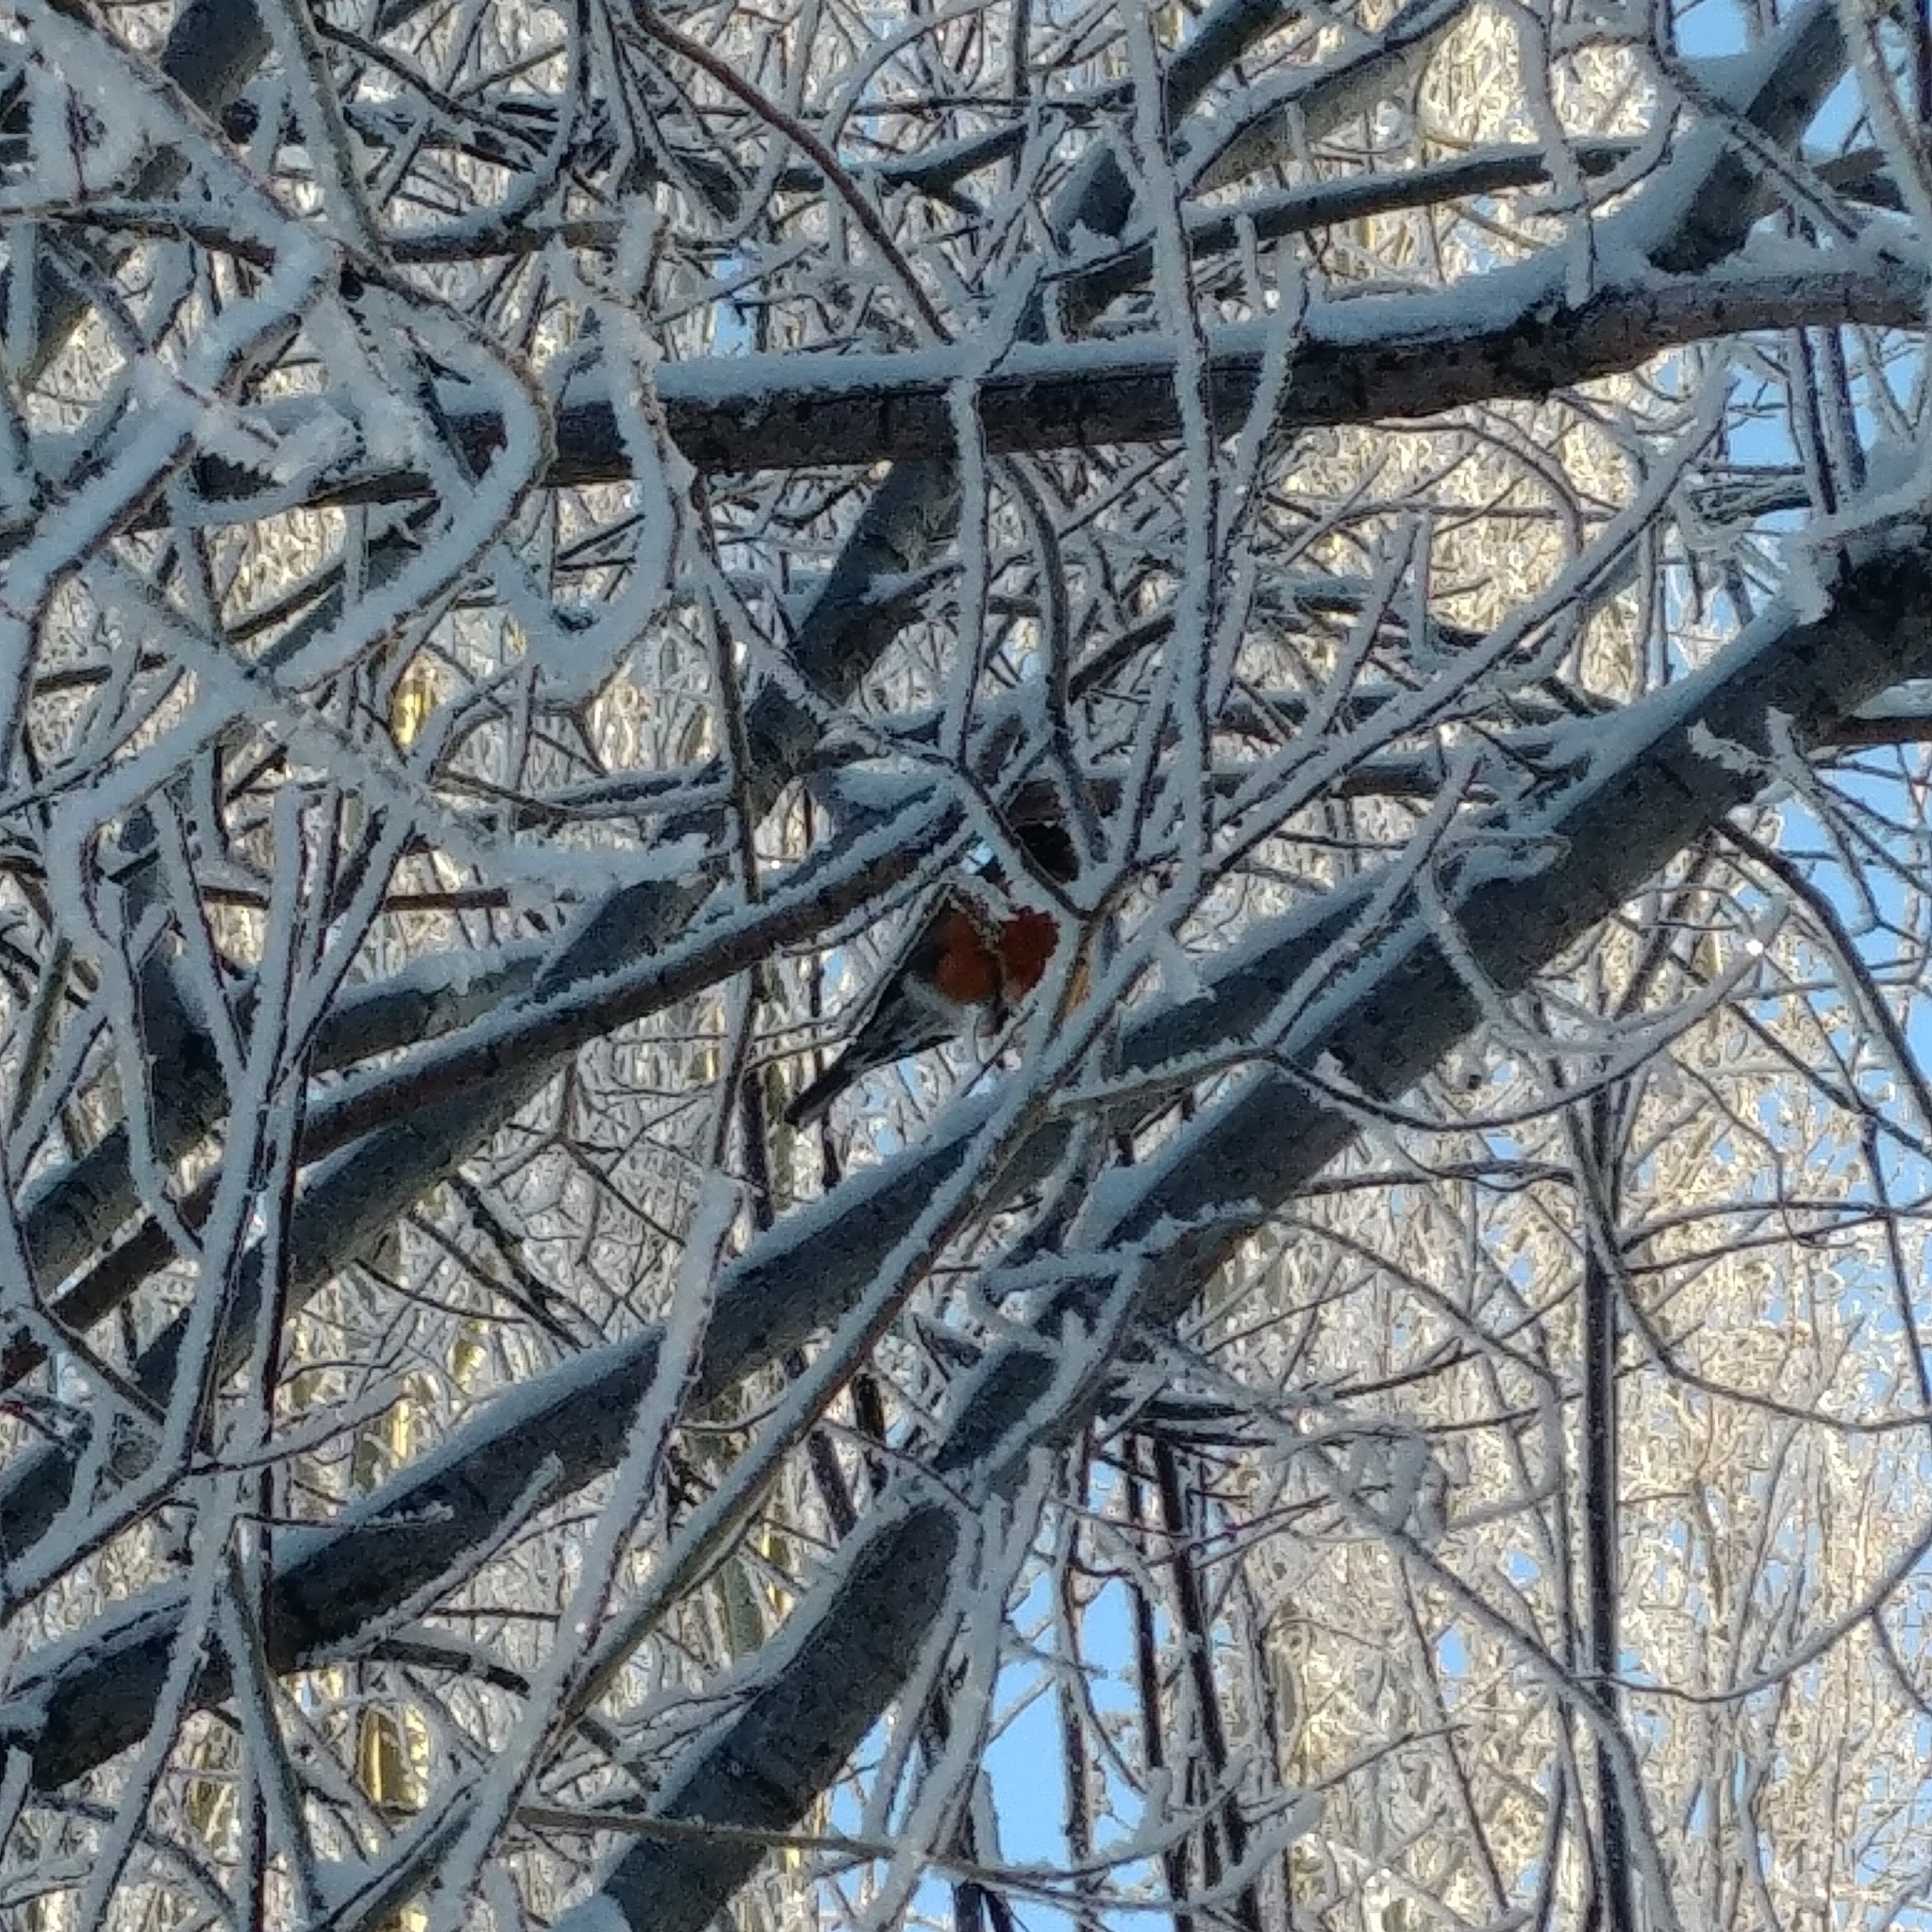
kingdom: Animalia
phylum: Chordata
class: Aves
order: Passeriformes
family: Turdidae
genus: Turdus
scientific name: Turdus migratorius
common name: American robin
